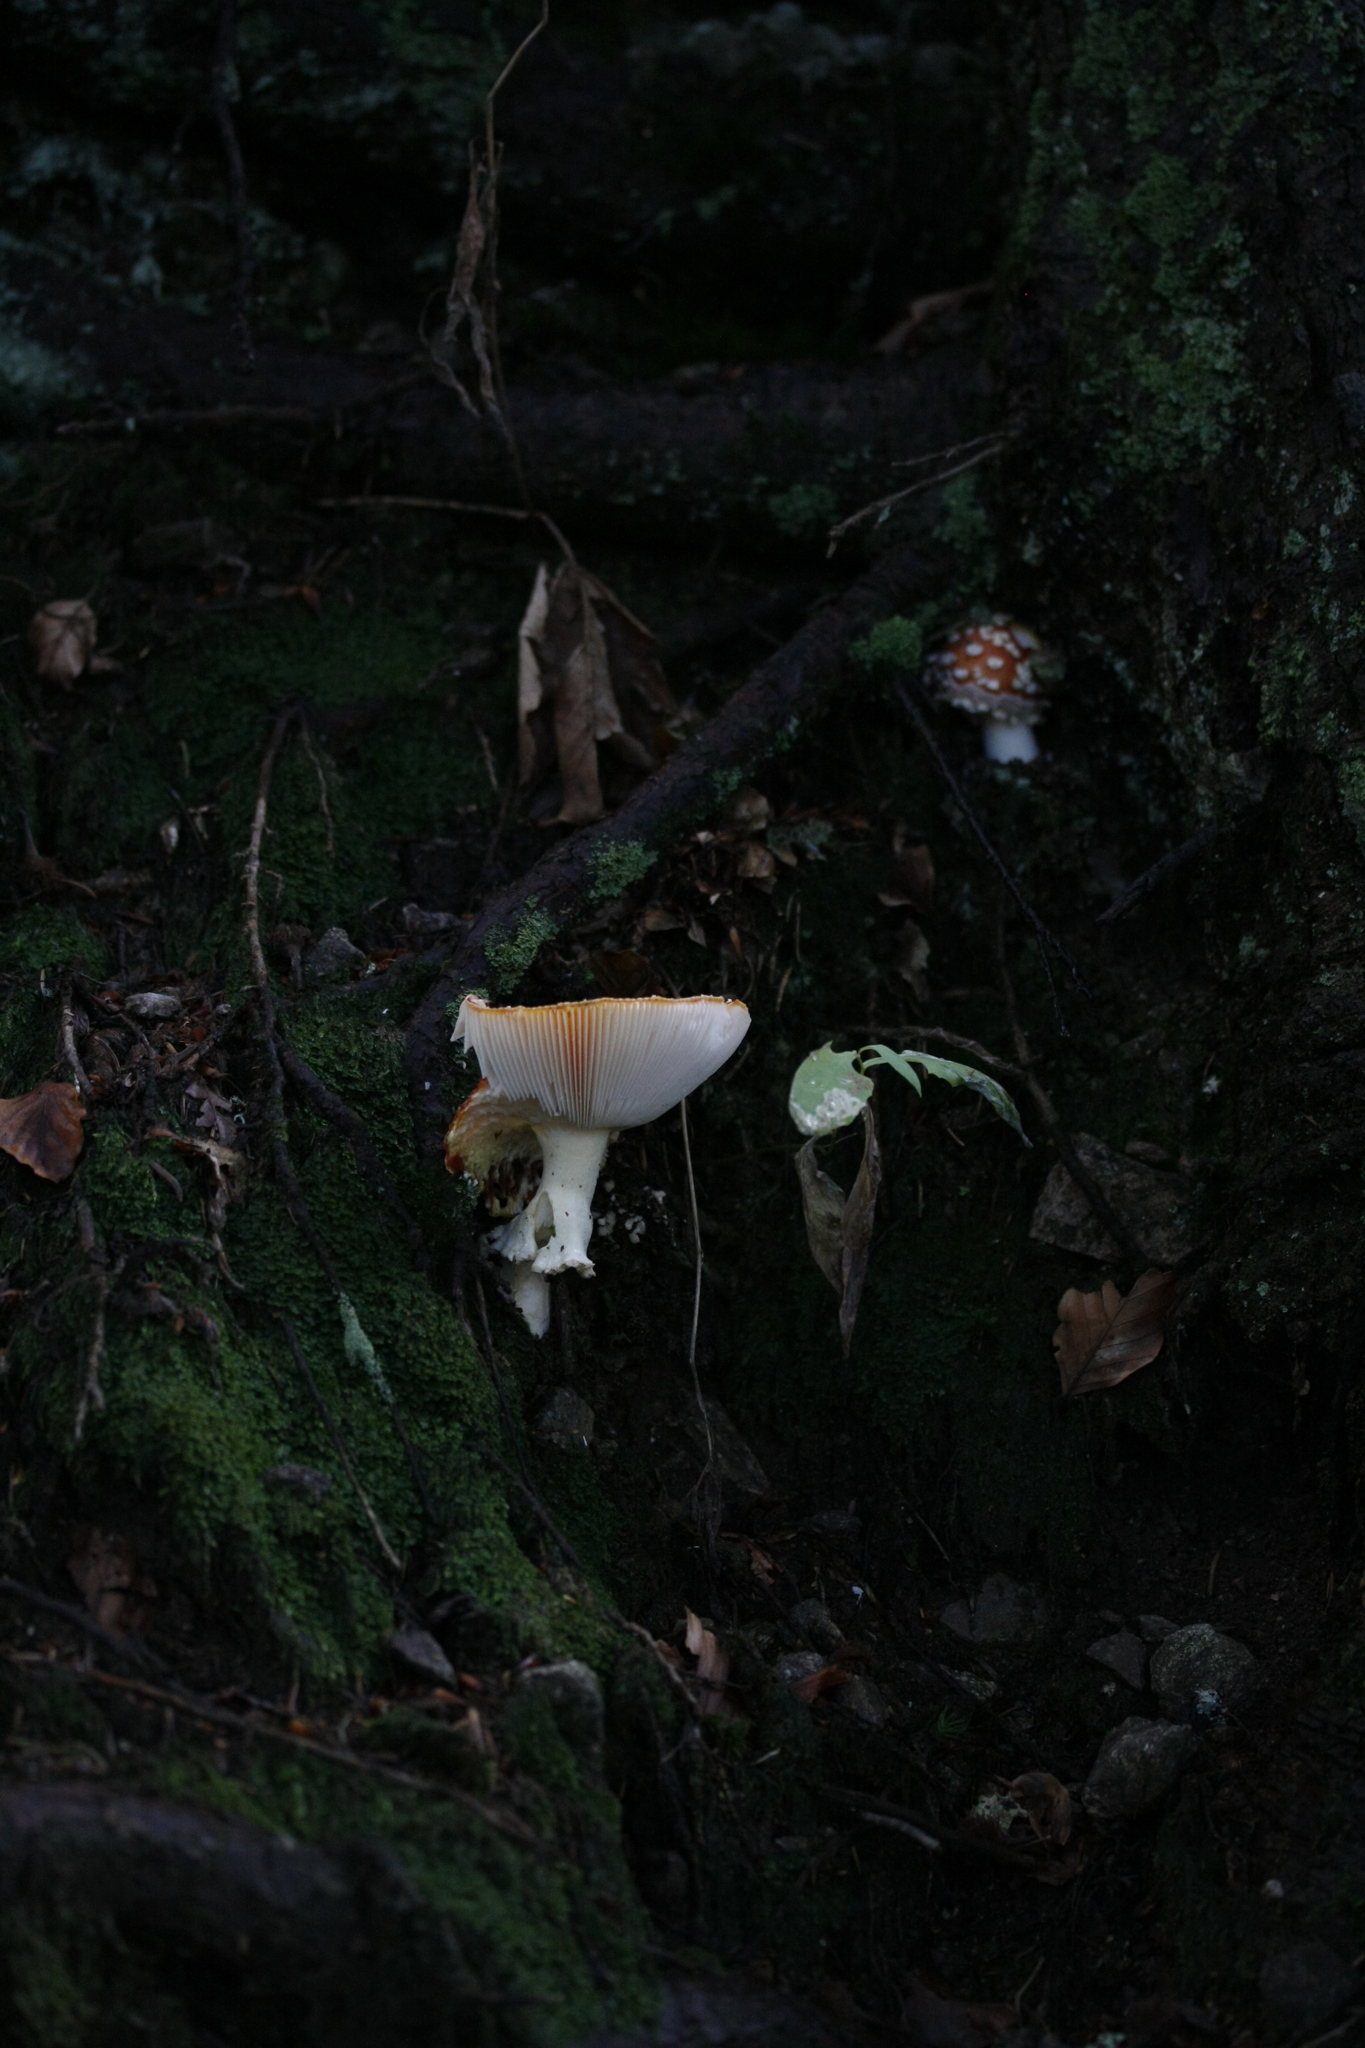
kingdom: Fungi
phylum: Basidiomycota
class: Agaricomycetes
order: Agaricales
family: Amanitaceae
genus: Amanita
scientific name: Amanita muscaria
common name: Fly agaric
